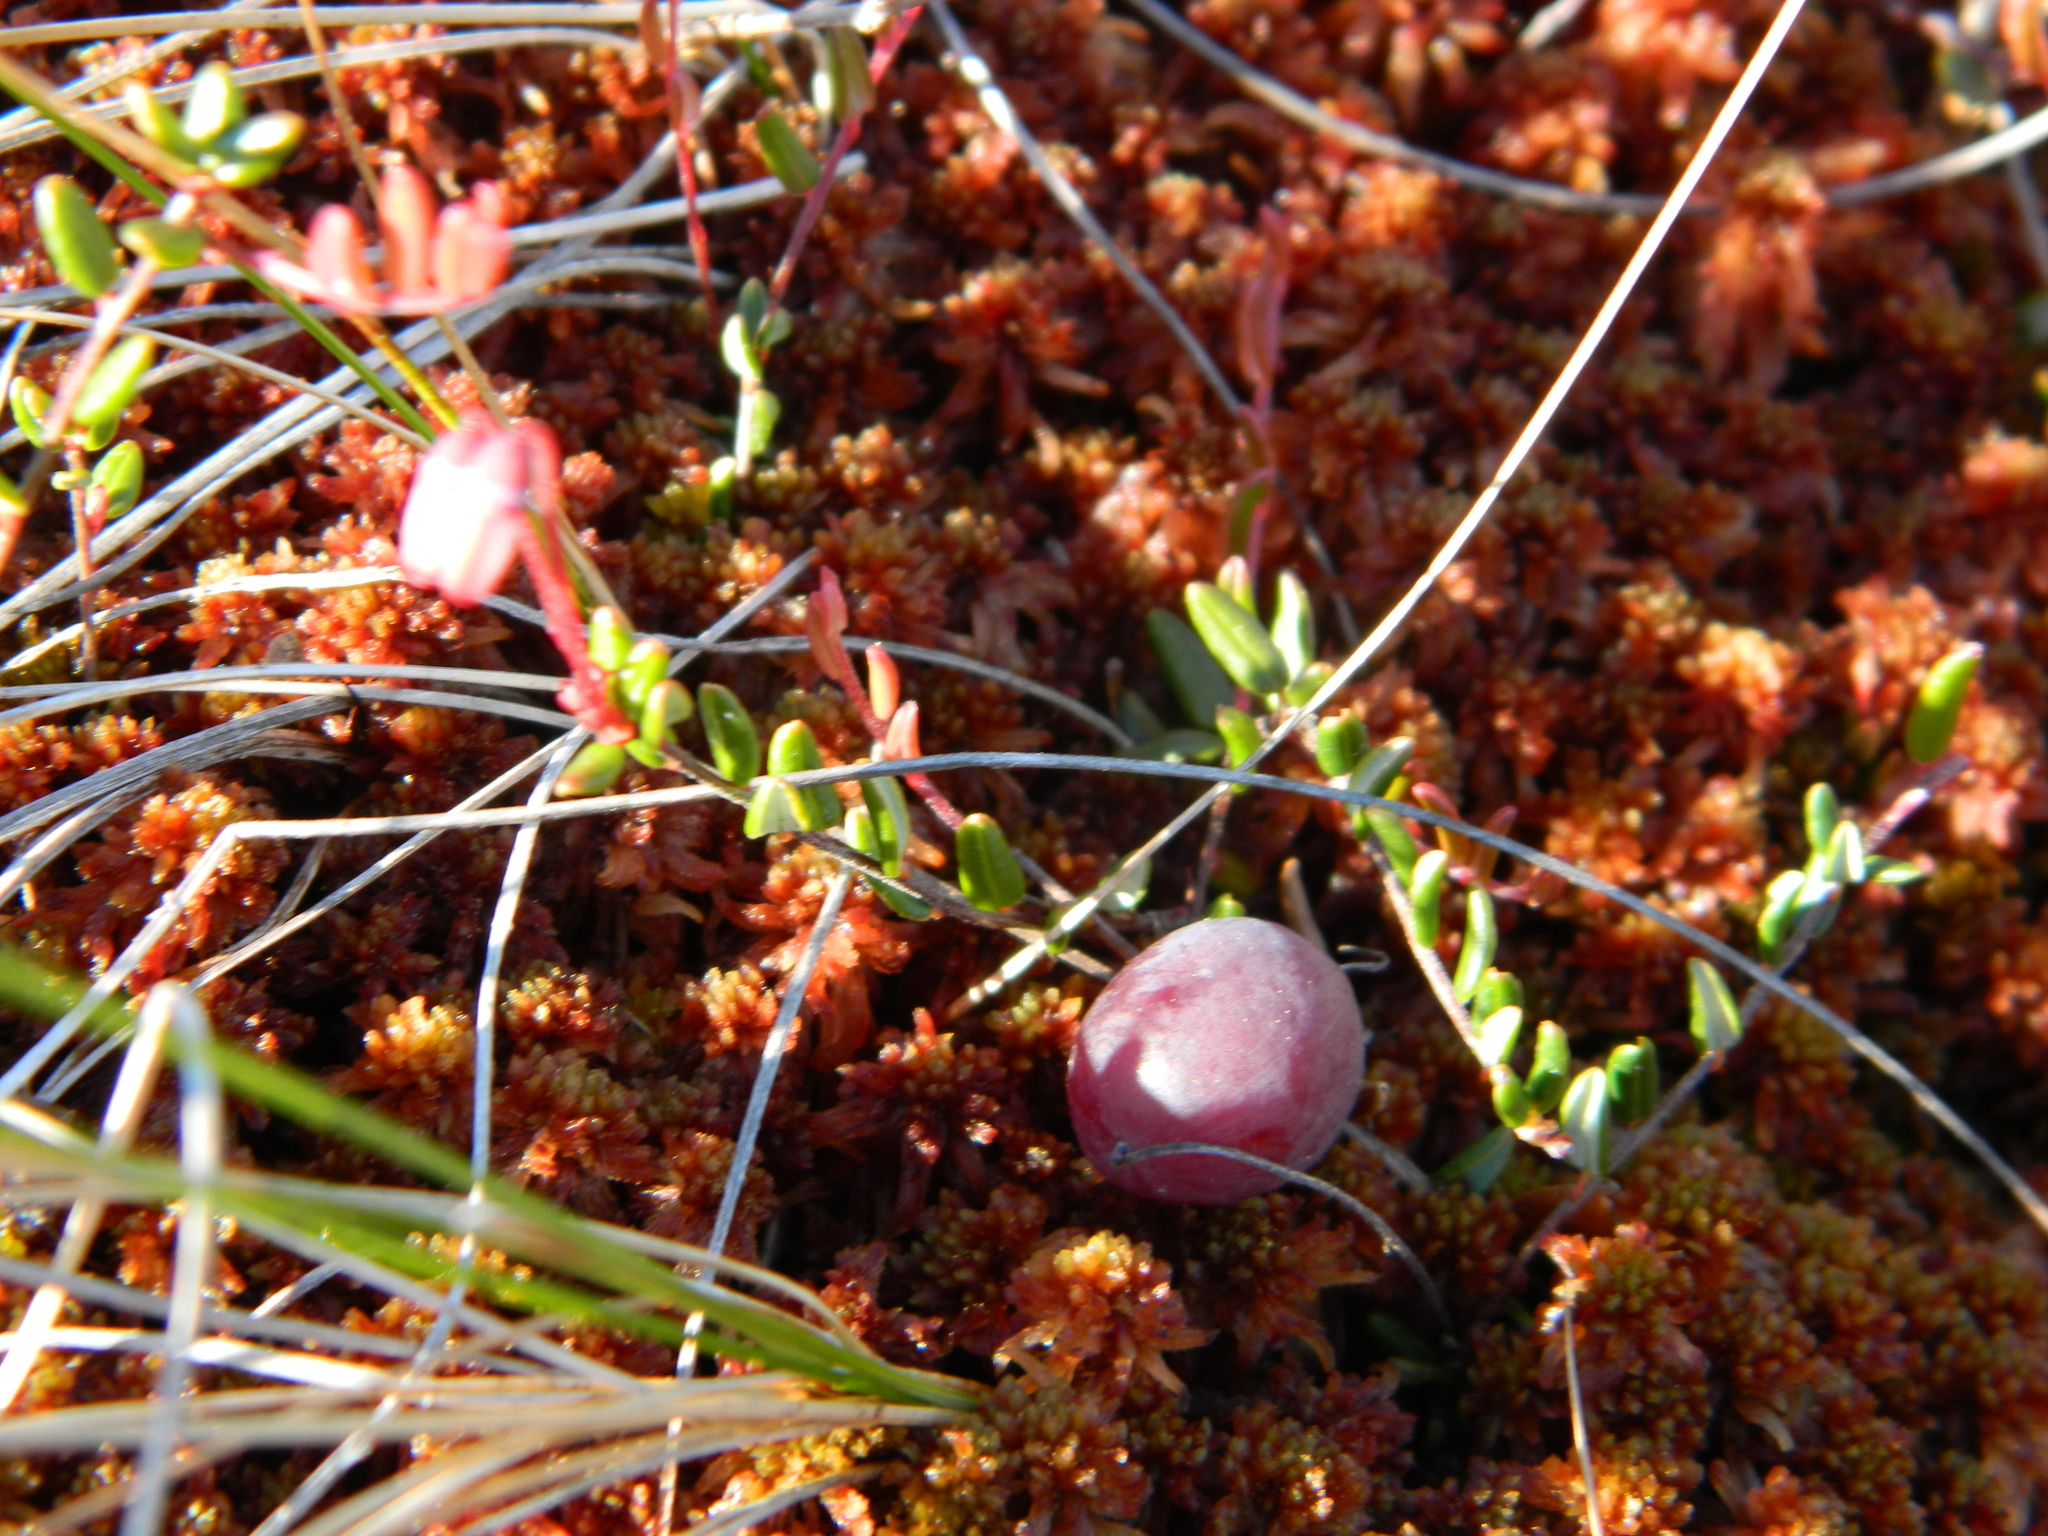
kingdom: Plantae
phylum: Tracheophyta
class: Magnoliopsida
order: Ericales
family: Ericaceae
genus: Vaccinium
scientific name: Vaccinium oxycoccos
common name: Cranberry
